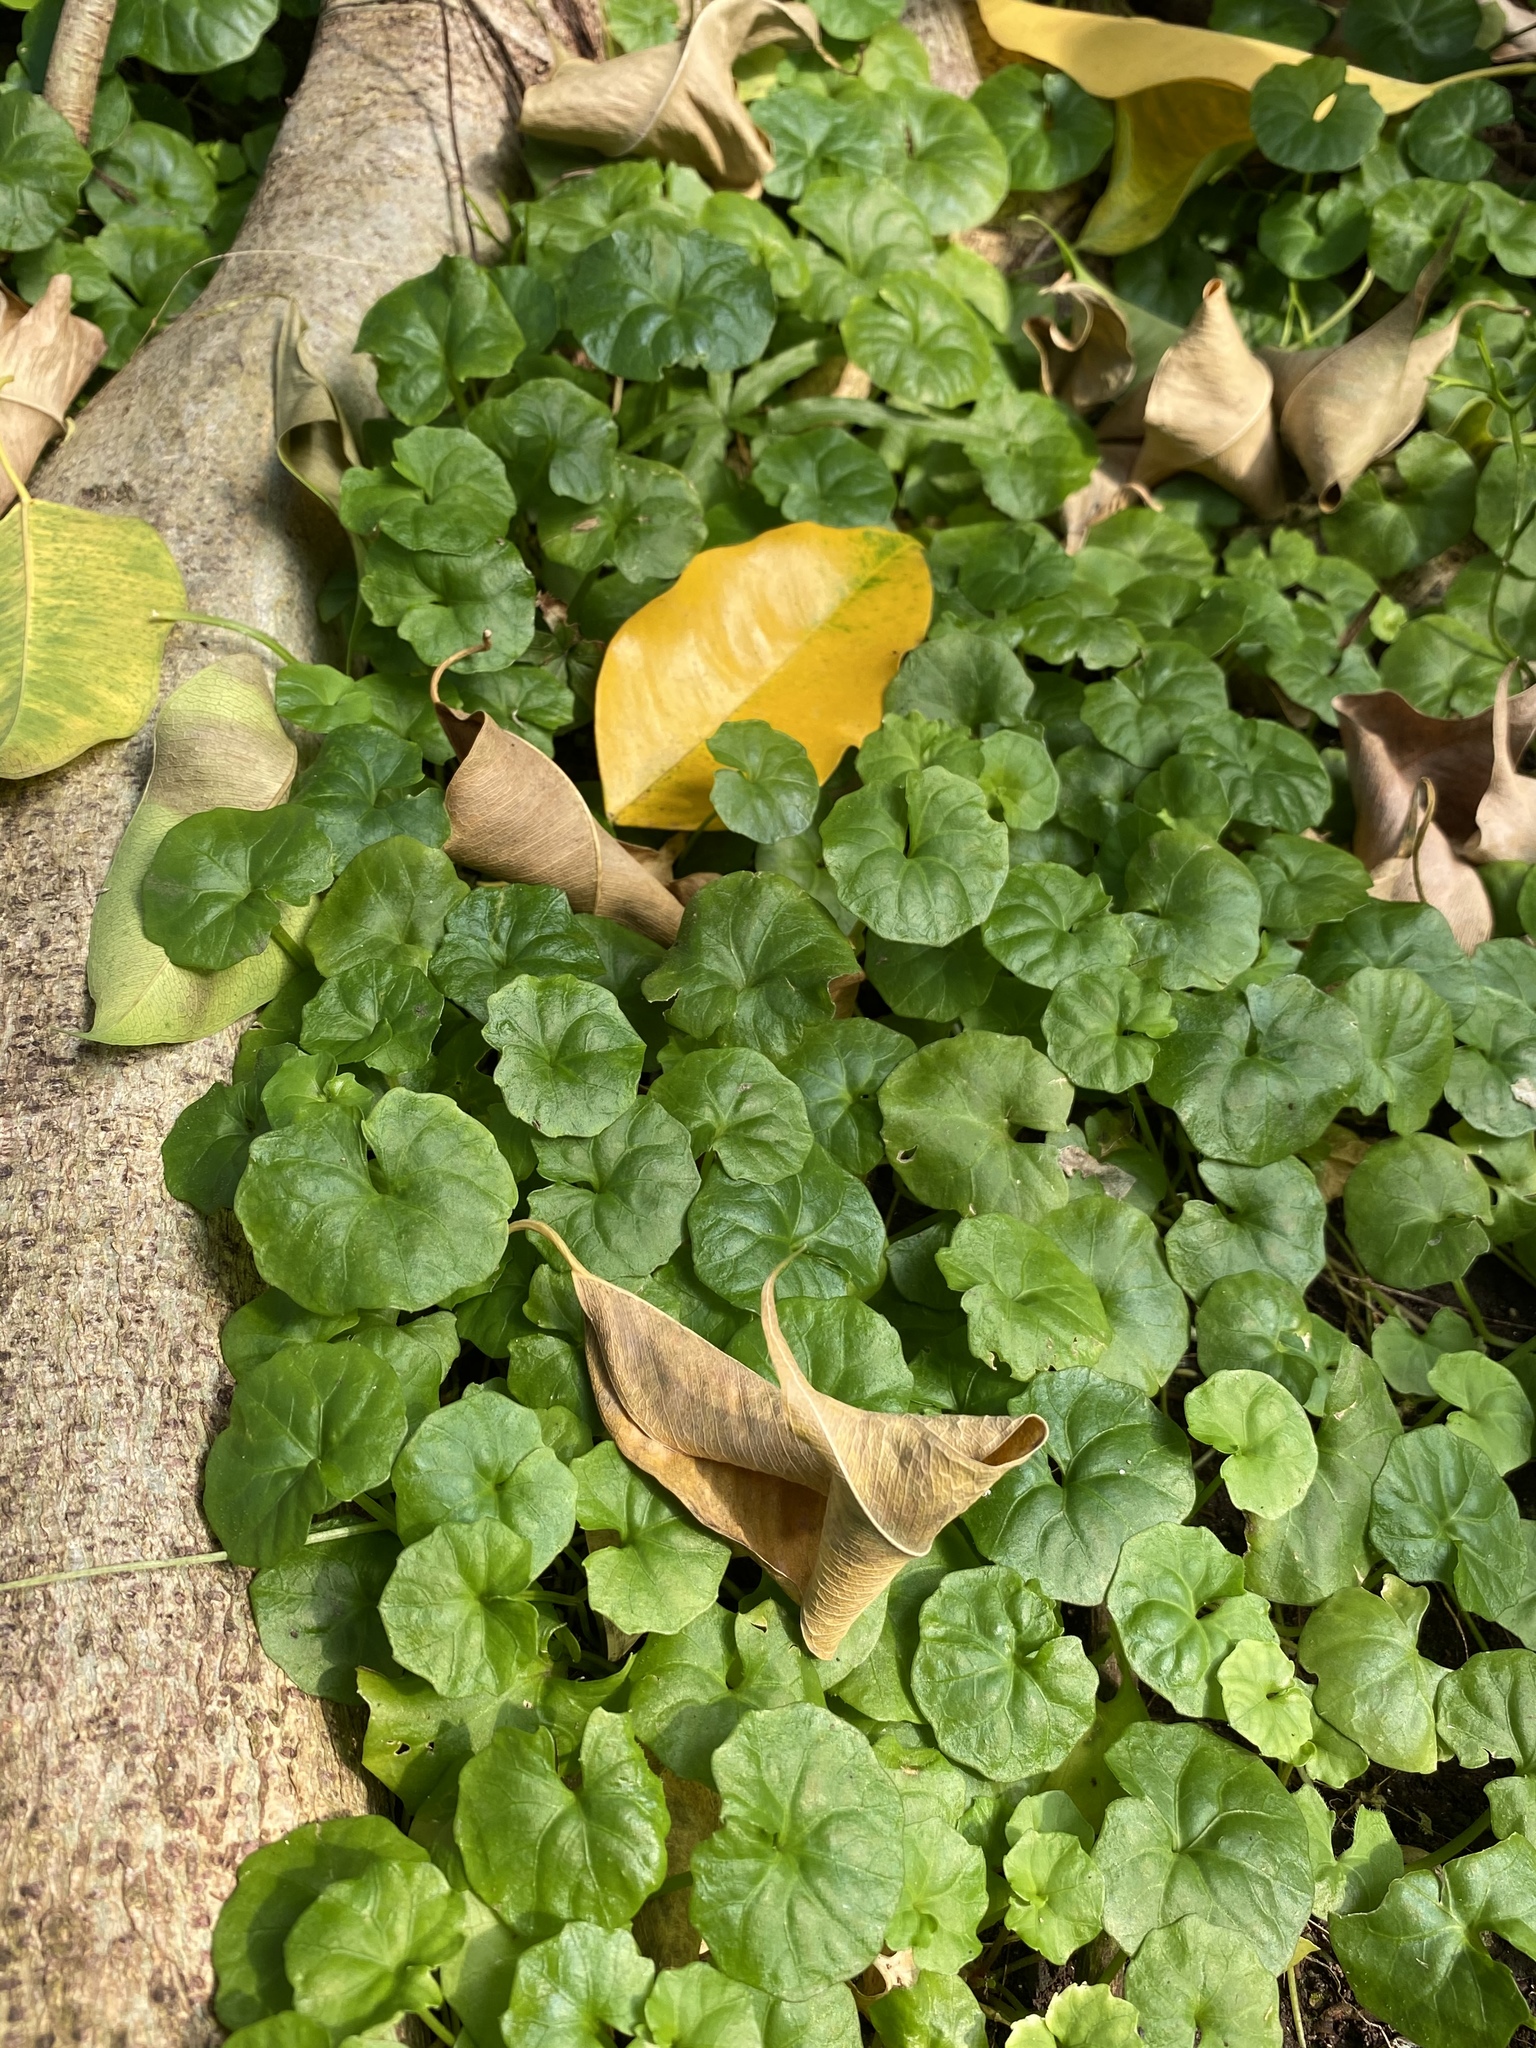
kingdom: Plantae
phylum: Tracheophyta
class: Magnoliopsida
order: Malpighiales
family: Violaceae
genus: Viola
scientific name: Viola banksii
